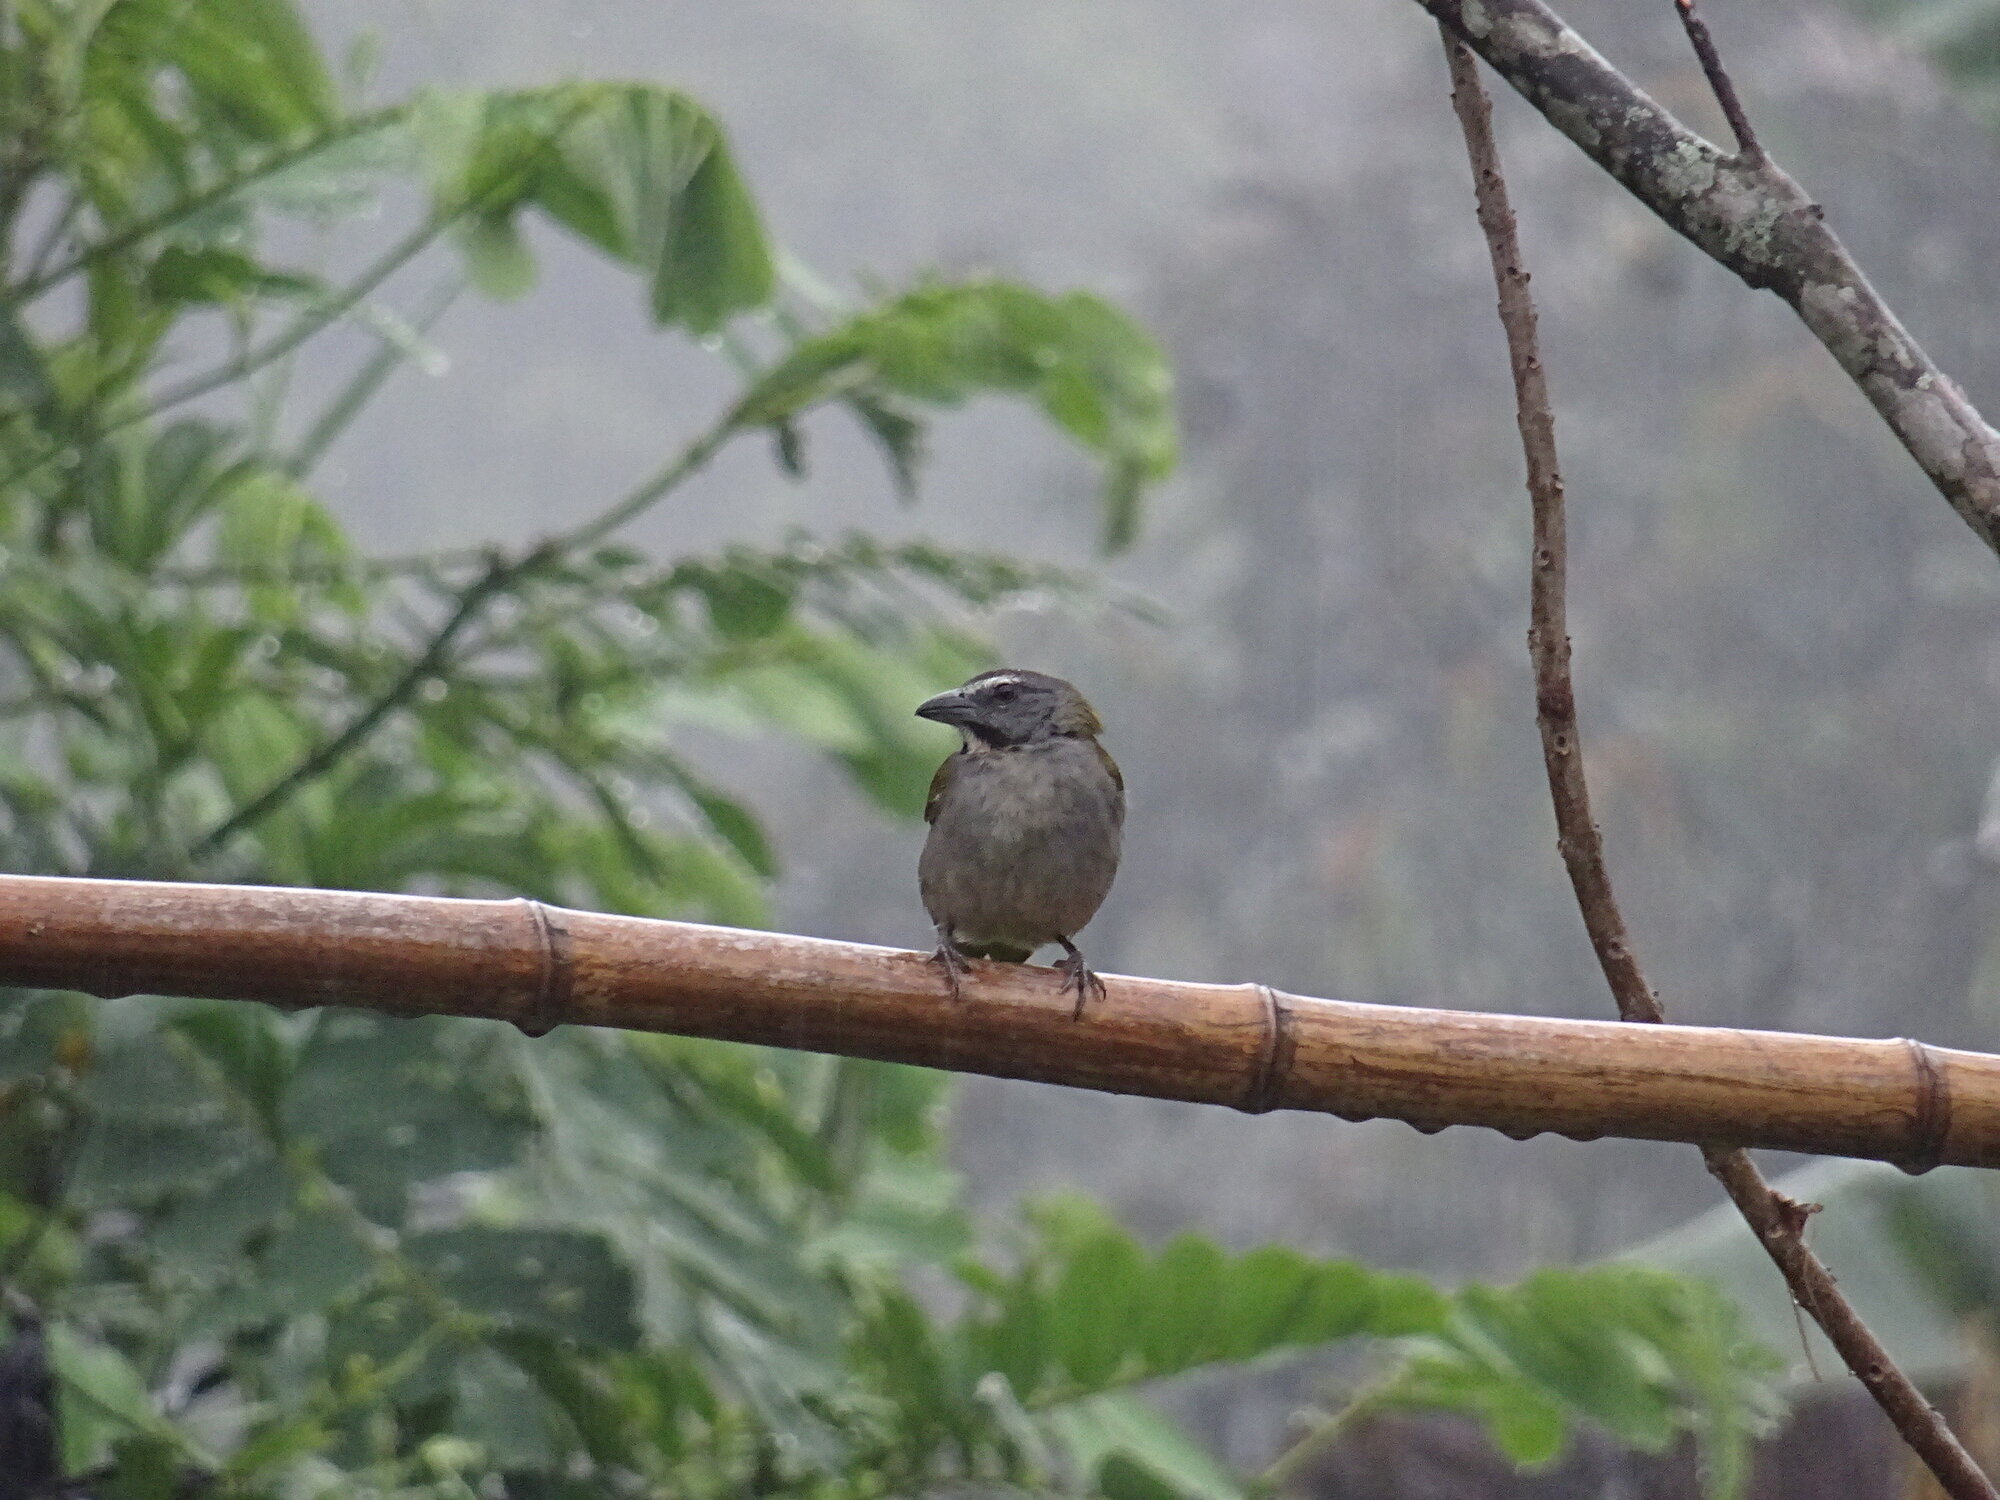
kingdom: Animalia
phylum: Chordata
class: Aves
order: Passeriformes
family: Thraupidae
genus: Saltator
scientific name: Saltator maximus
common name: Buff-throated saltator
